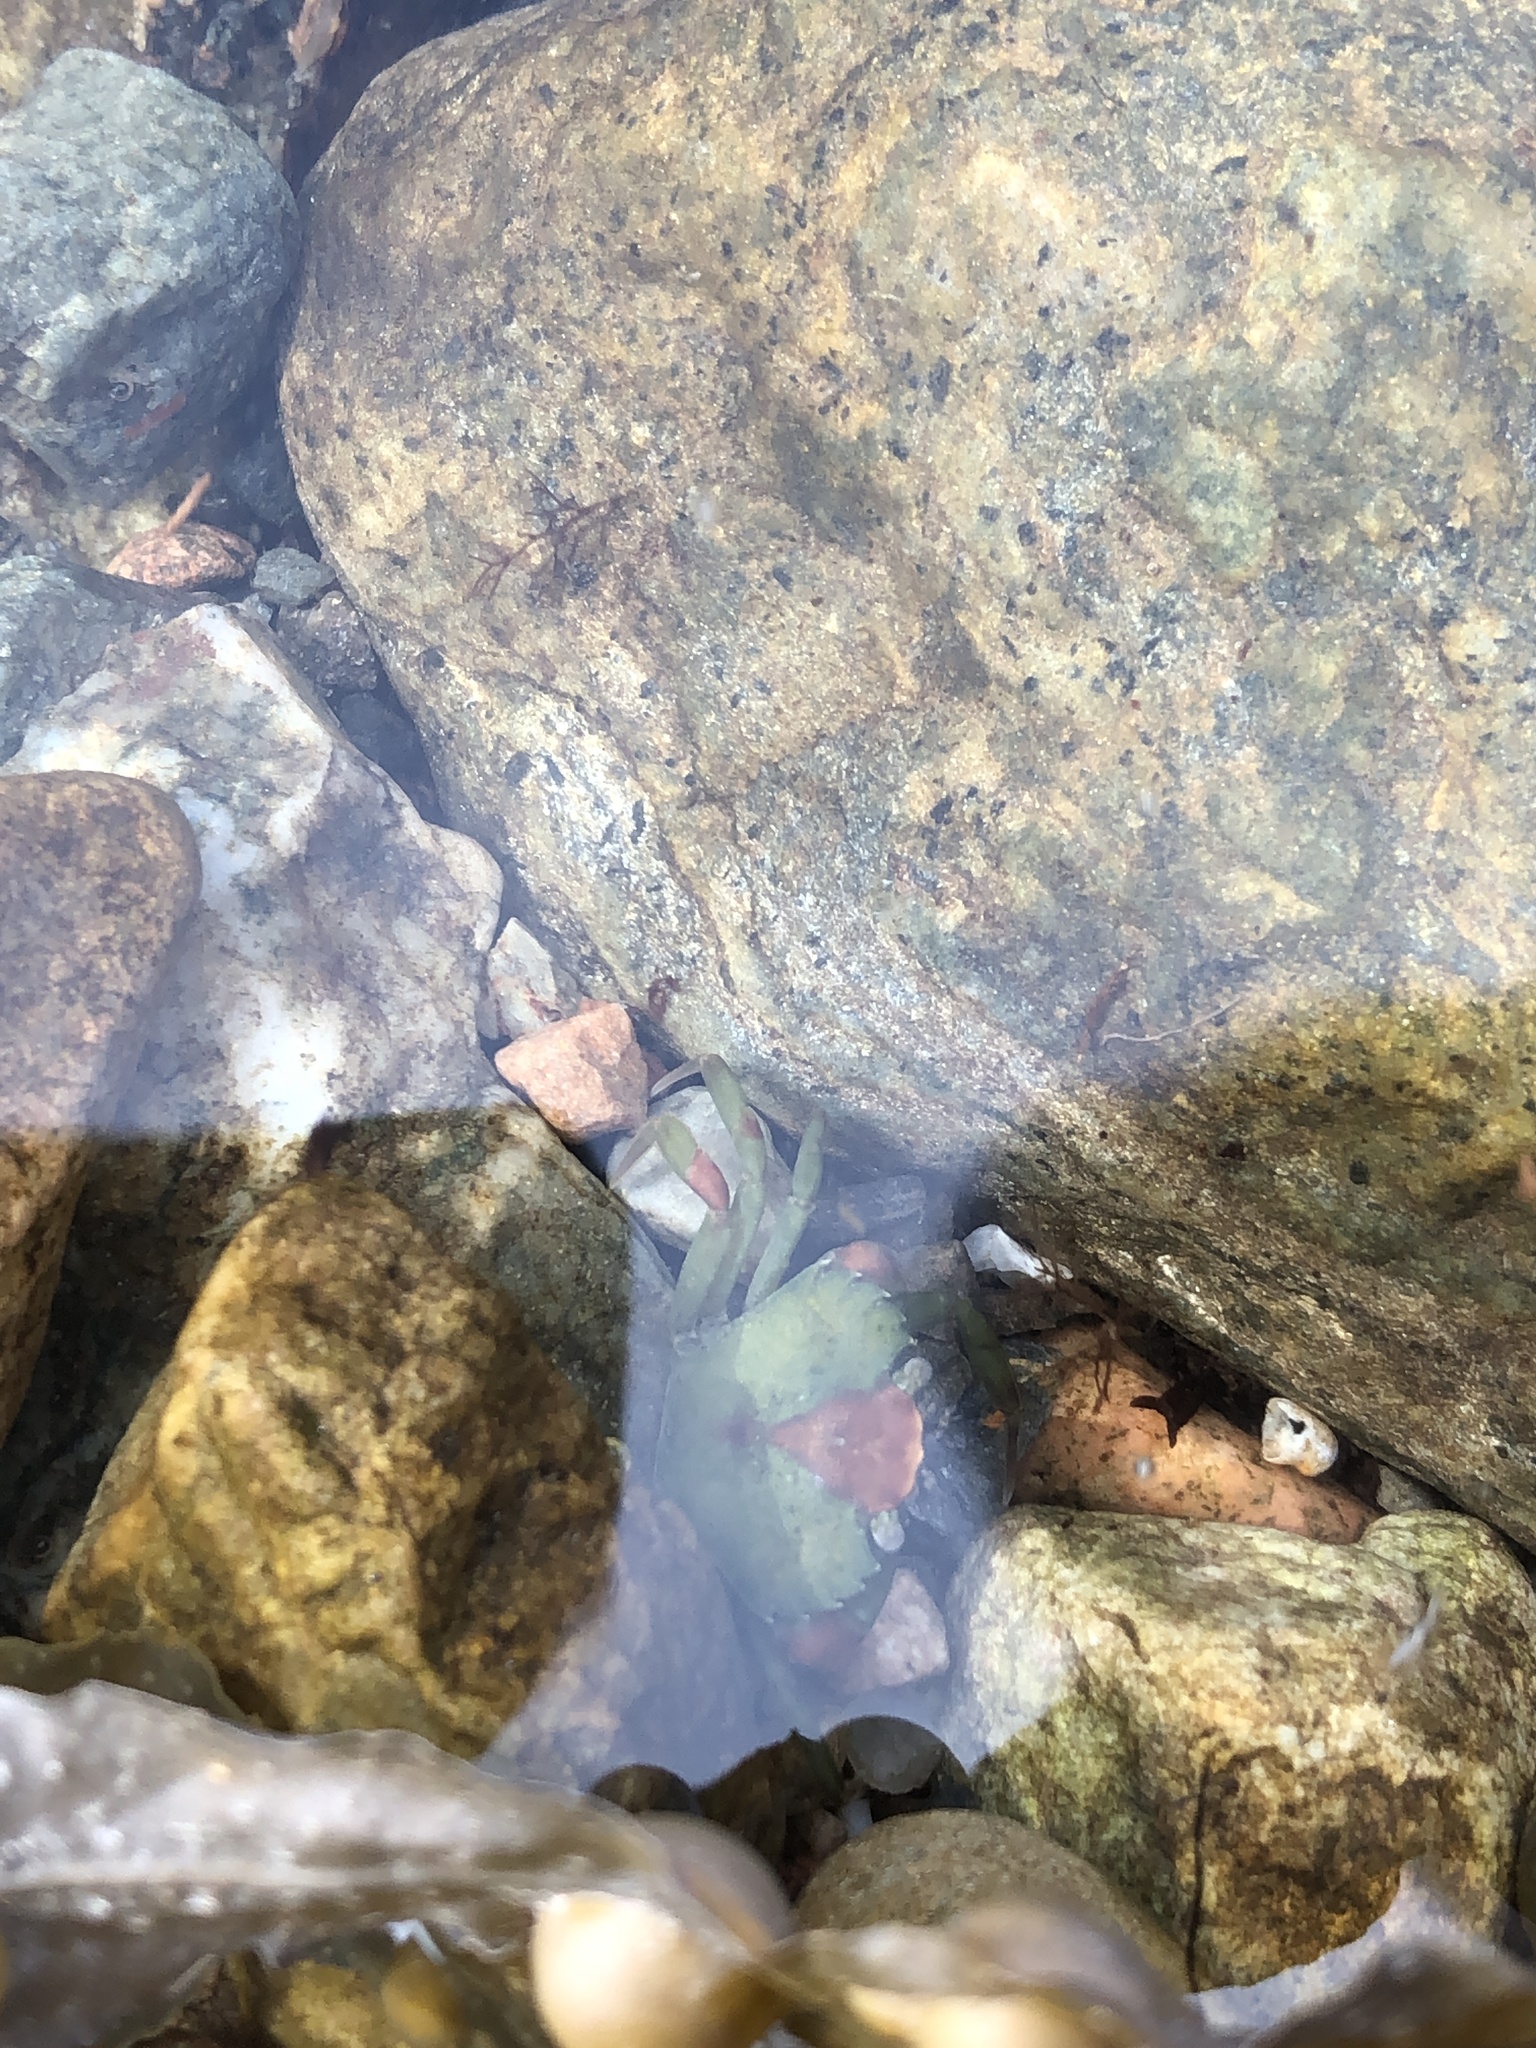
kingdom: Animalia
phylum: Arthropoda
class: Malacostraca
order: Decapoda
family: Carcinidae
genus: Carcinus
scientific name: Carcinus maenas
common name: European green crab
